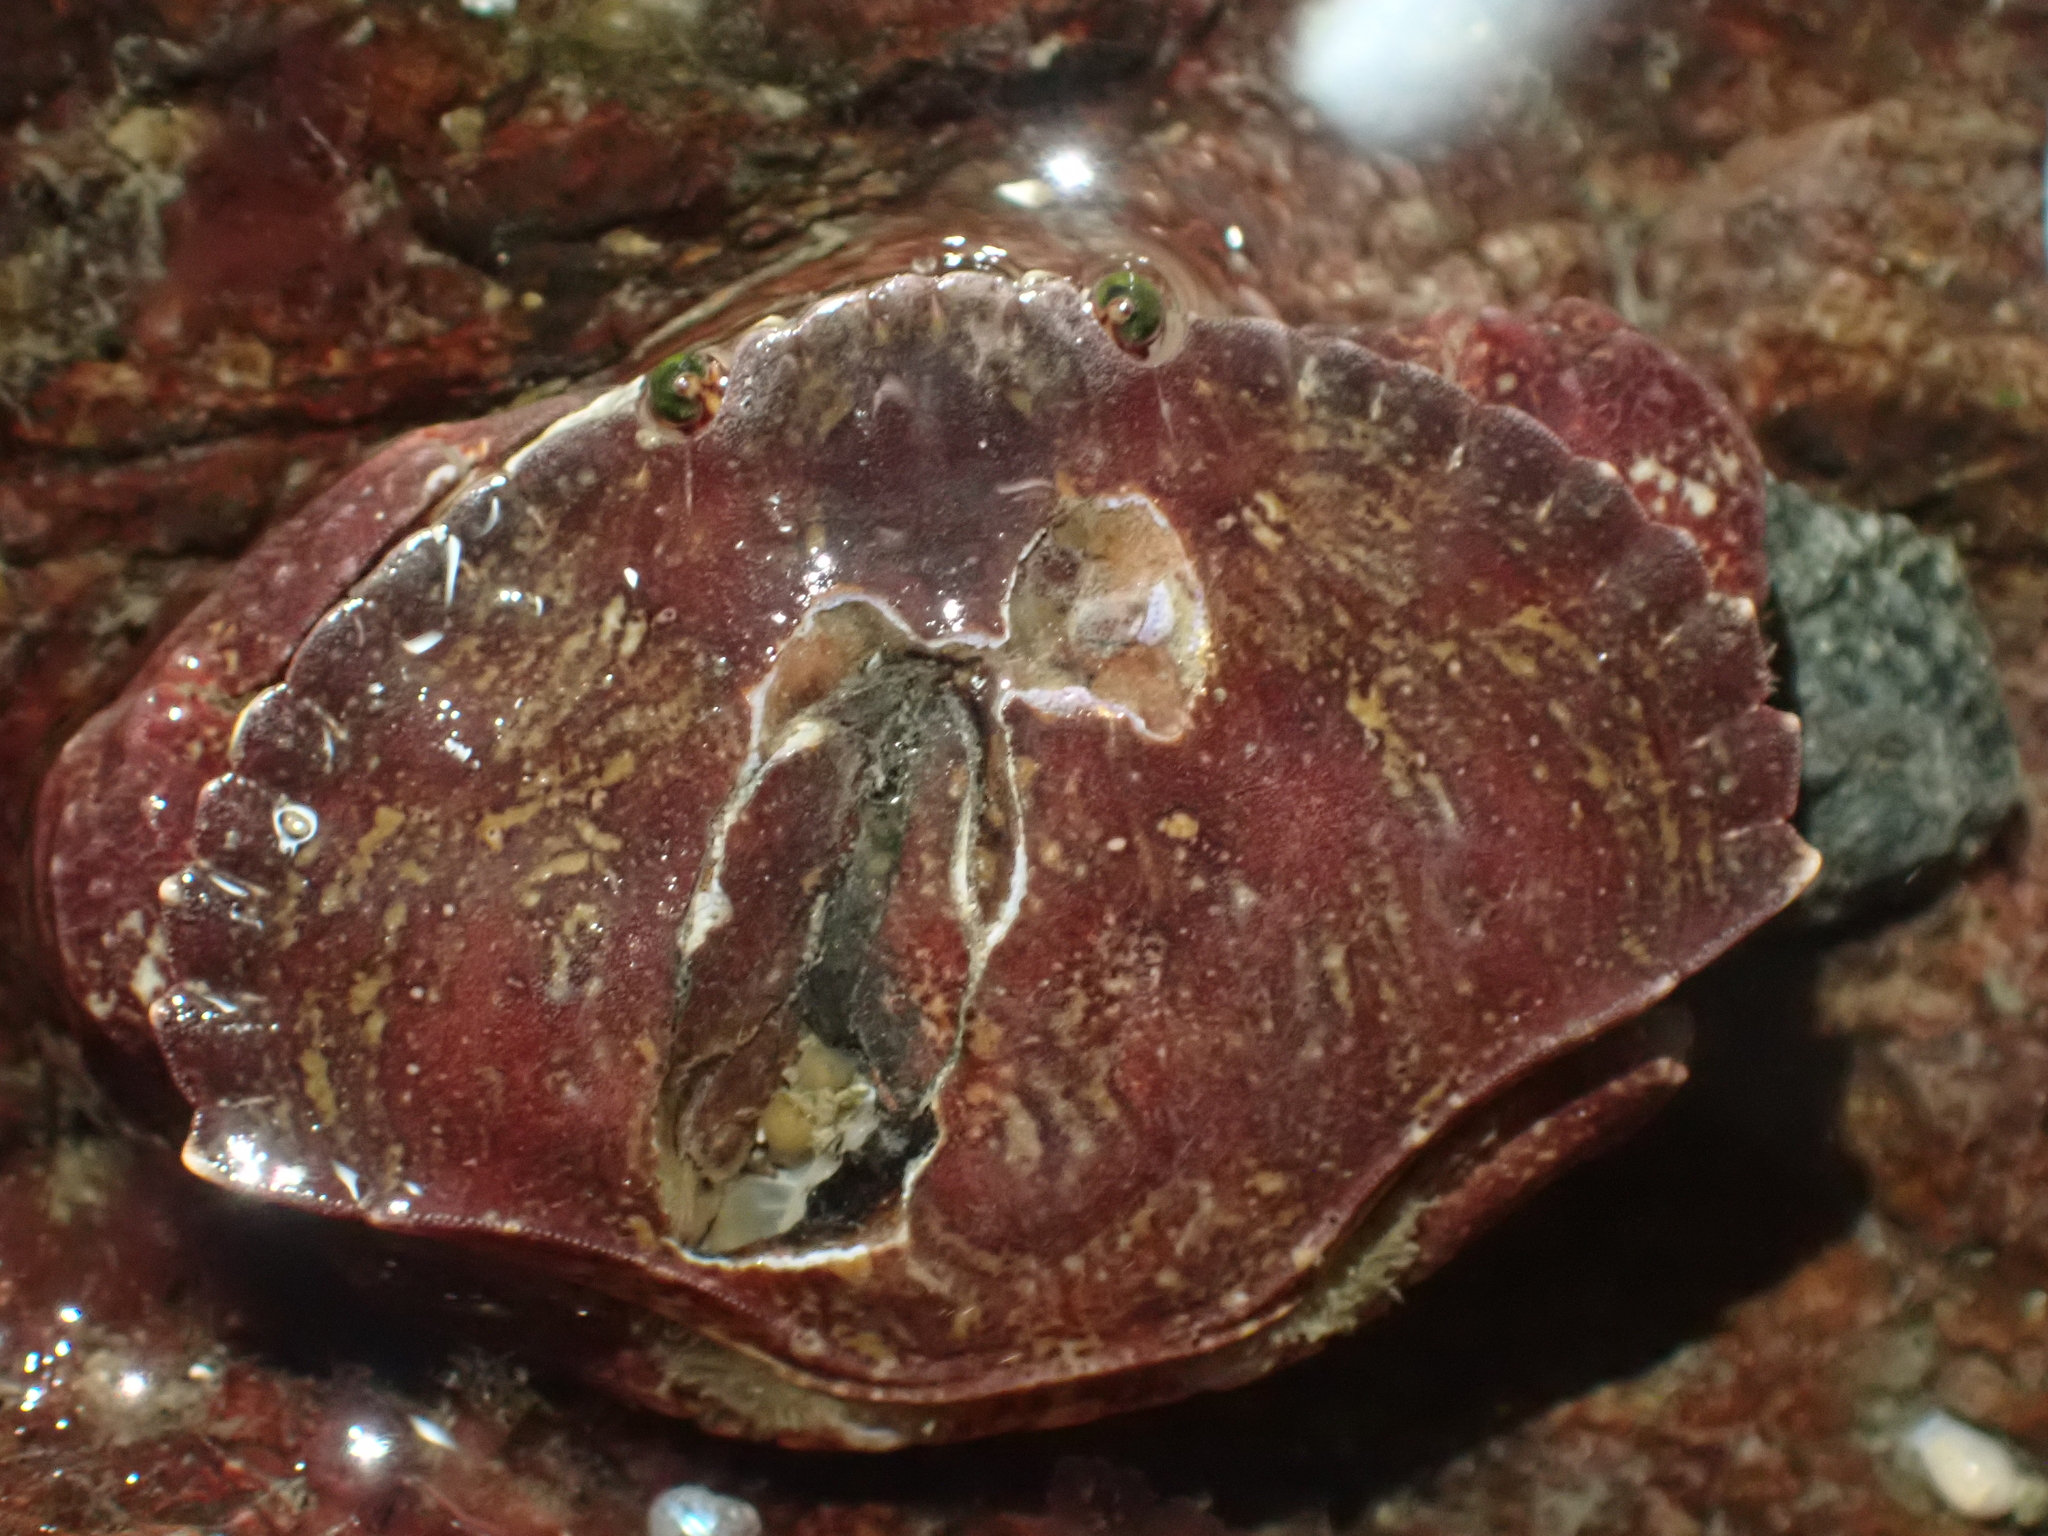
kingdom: Animalia
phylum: Arthropoda
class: Malacostraca
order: Decapoda
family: Cancridae
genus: Cancer
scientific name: Cancer productus
